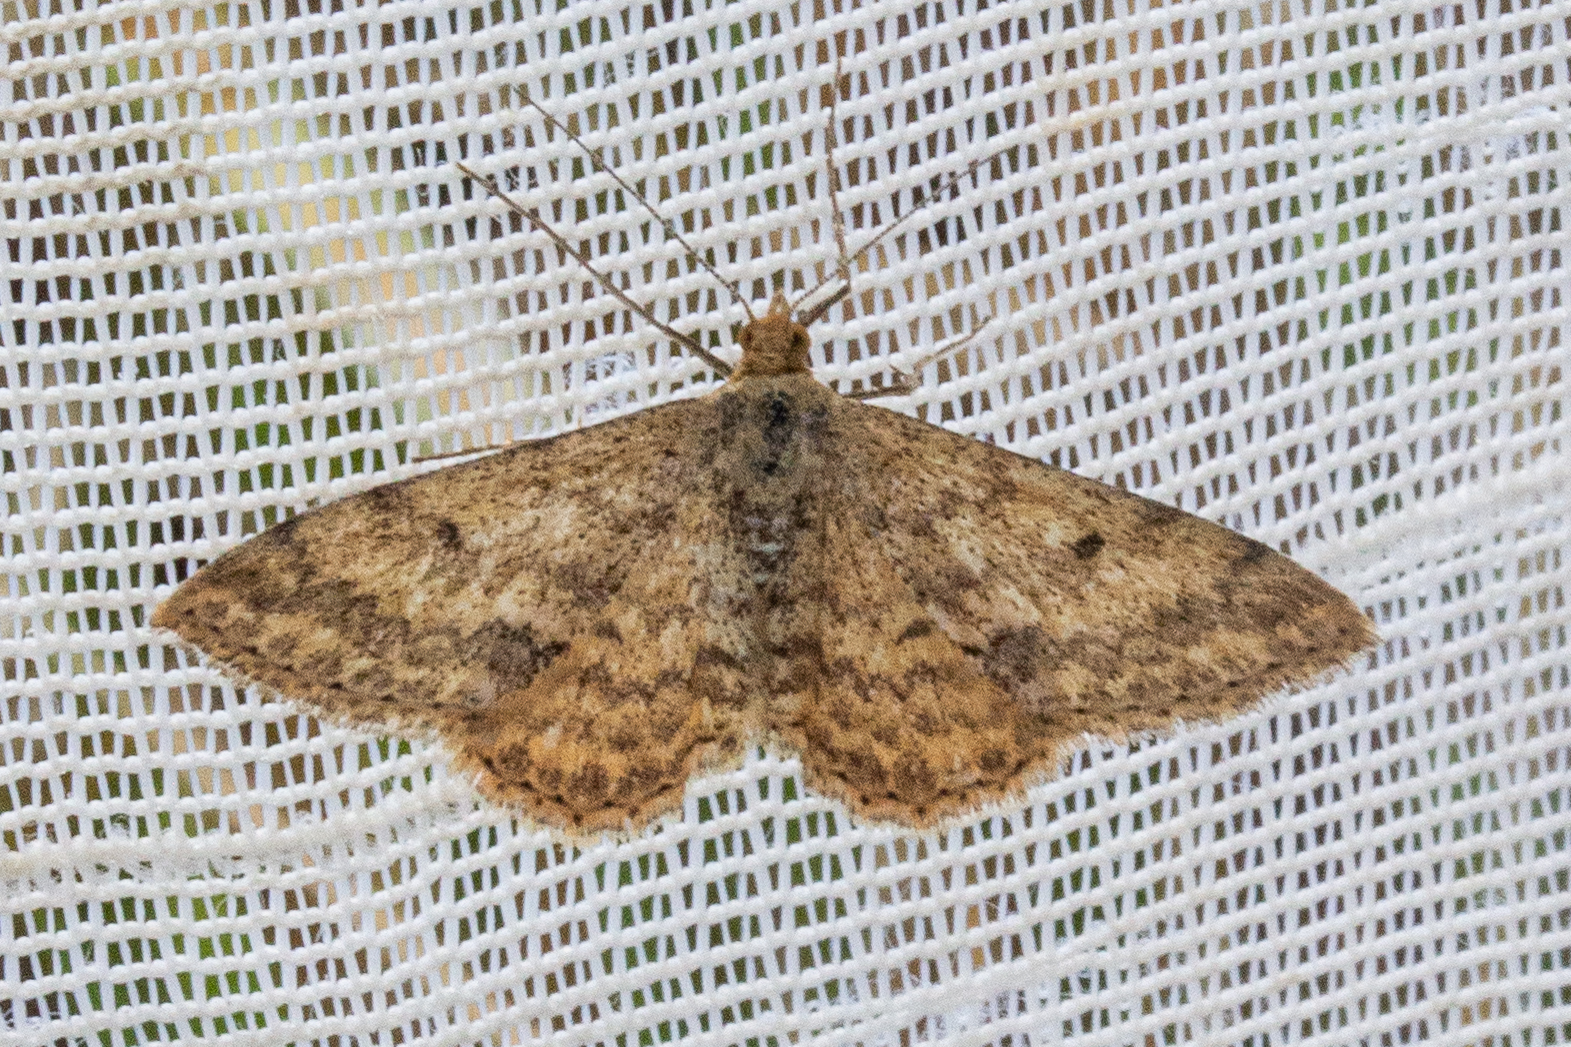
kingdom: Animalia
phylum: Arthropoda
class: Insecta
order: Lepidoptera
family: Geometridae
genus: Scopula
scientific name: Scopula rubraria
